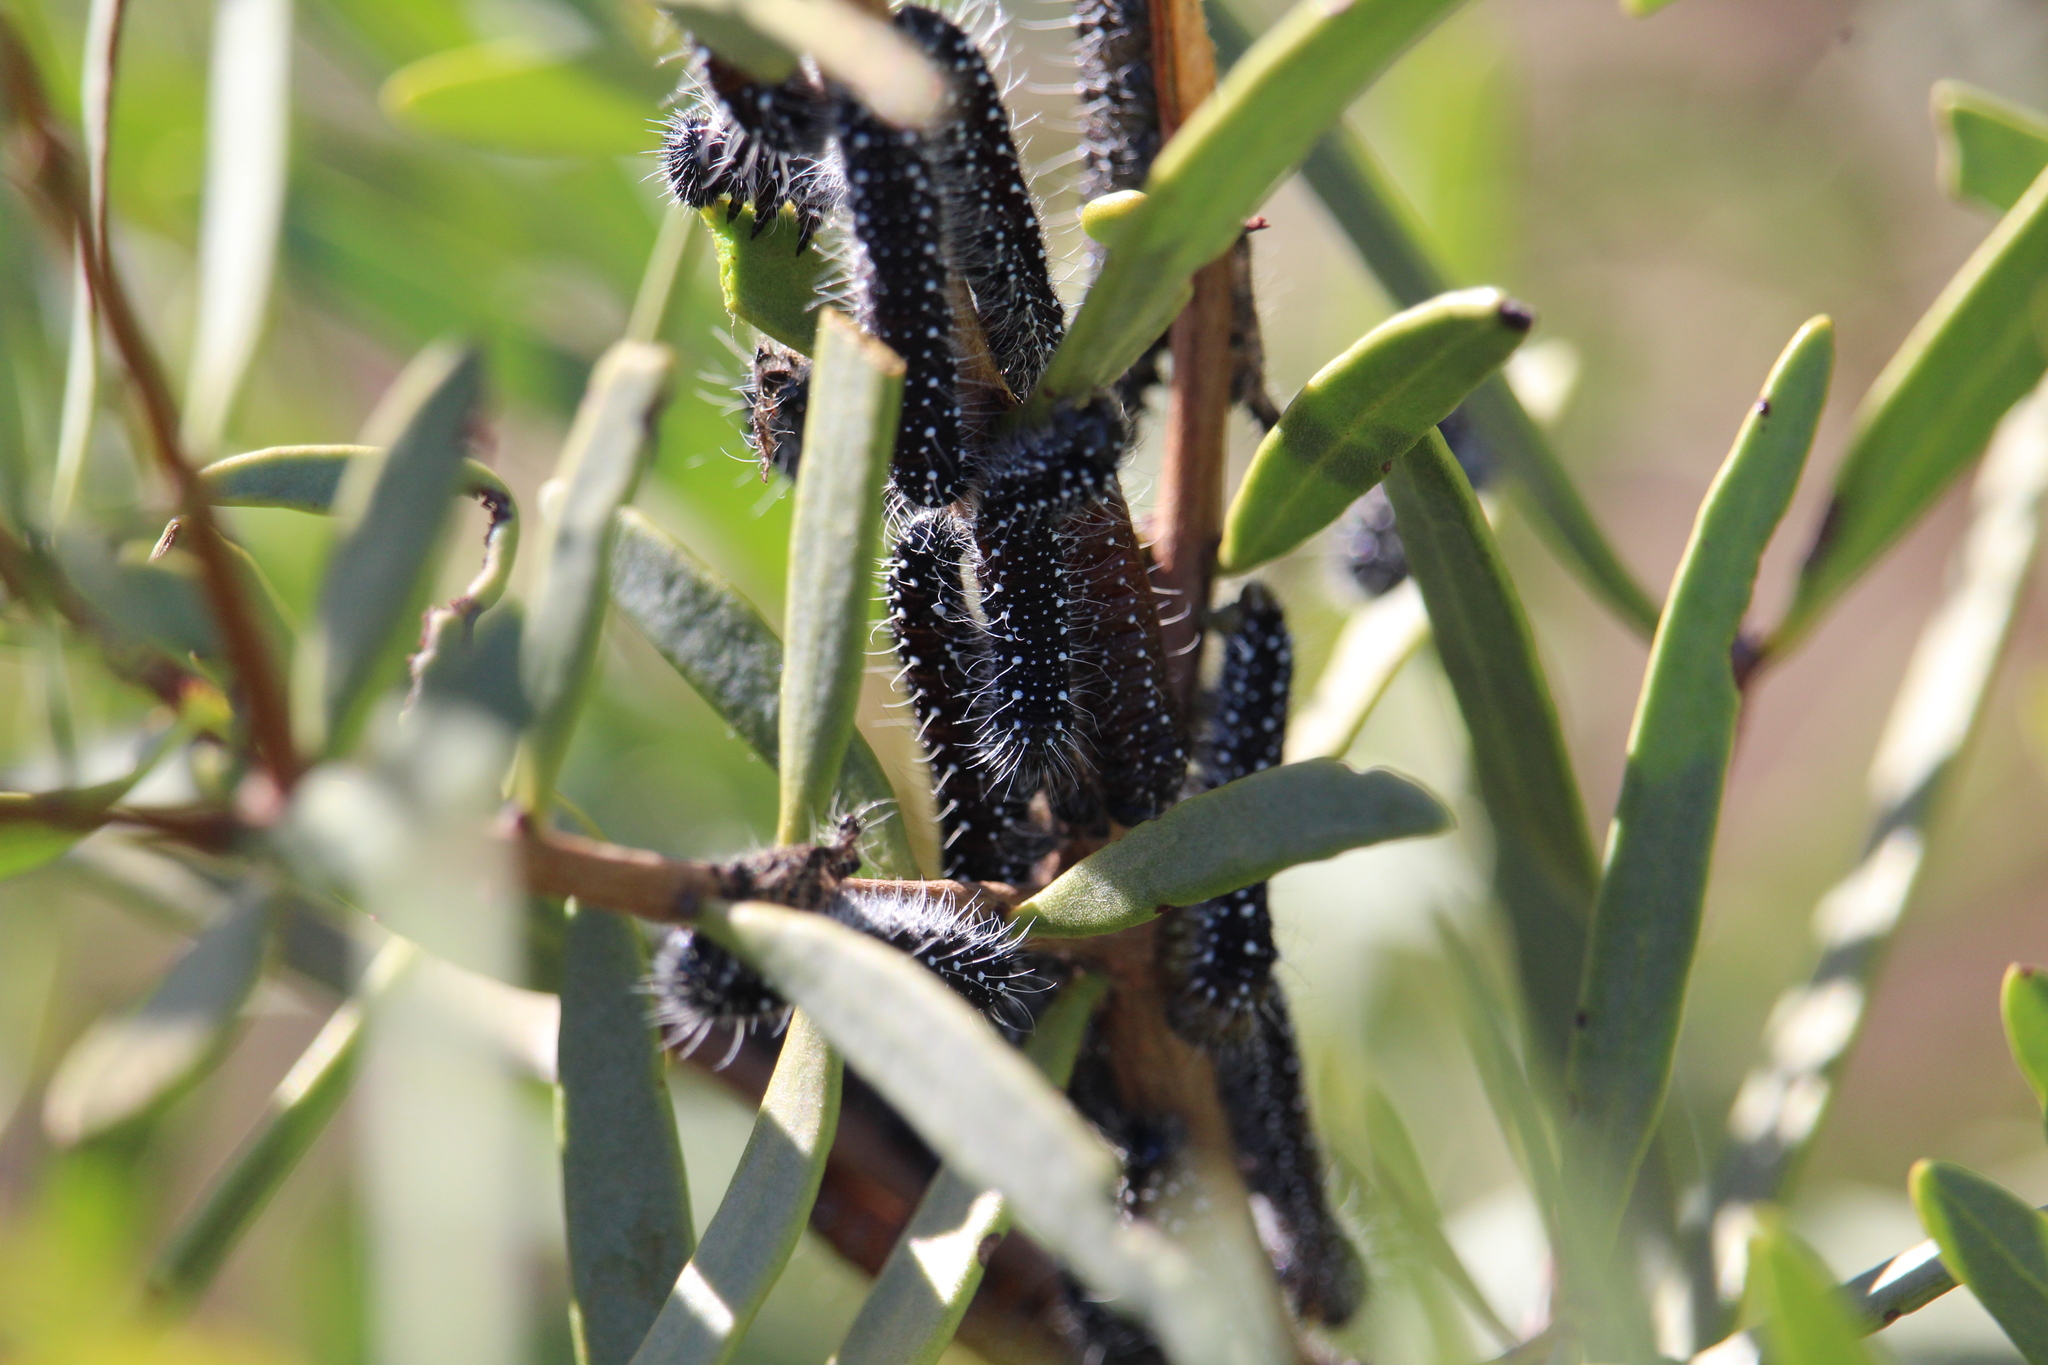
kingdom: Animalia
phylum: Arthropoda
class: Insecta
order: Lepidoptera
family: Pieridae
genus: Delias
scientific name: Delias aganippe
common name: Red-spotted jezebel
